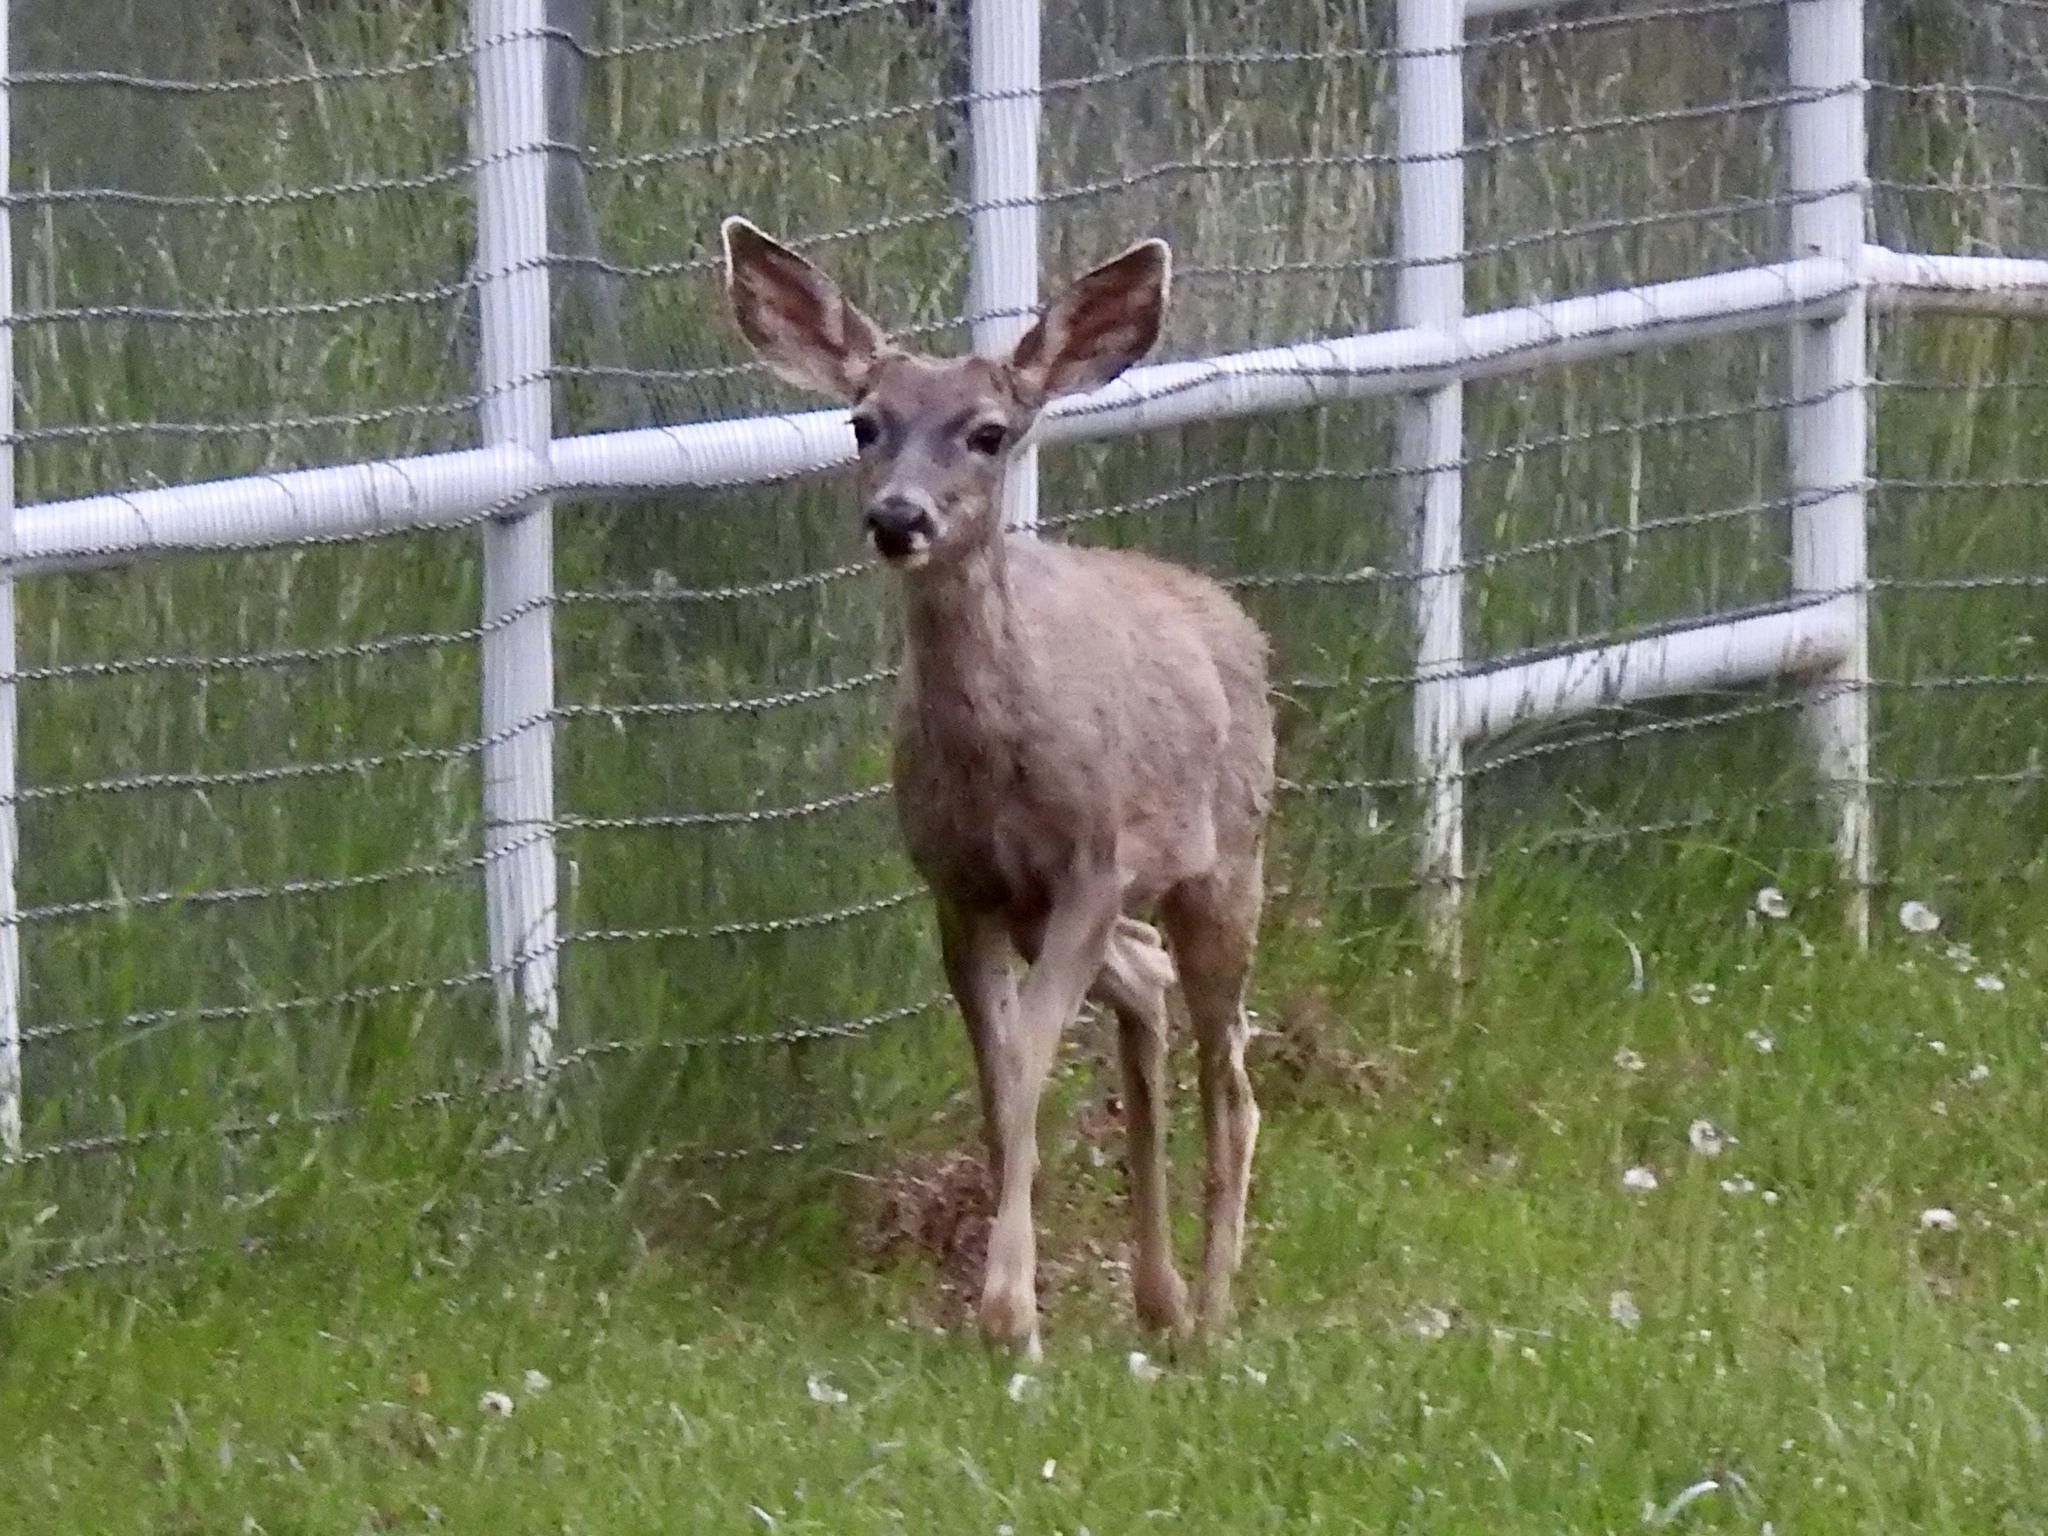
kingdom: Animalia
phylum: Chordata
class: Mammalia
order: Artiodactyla
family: Cervidae
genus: Odocoileus
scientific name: Odocoileus hemionus
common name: Mule deer
